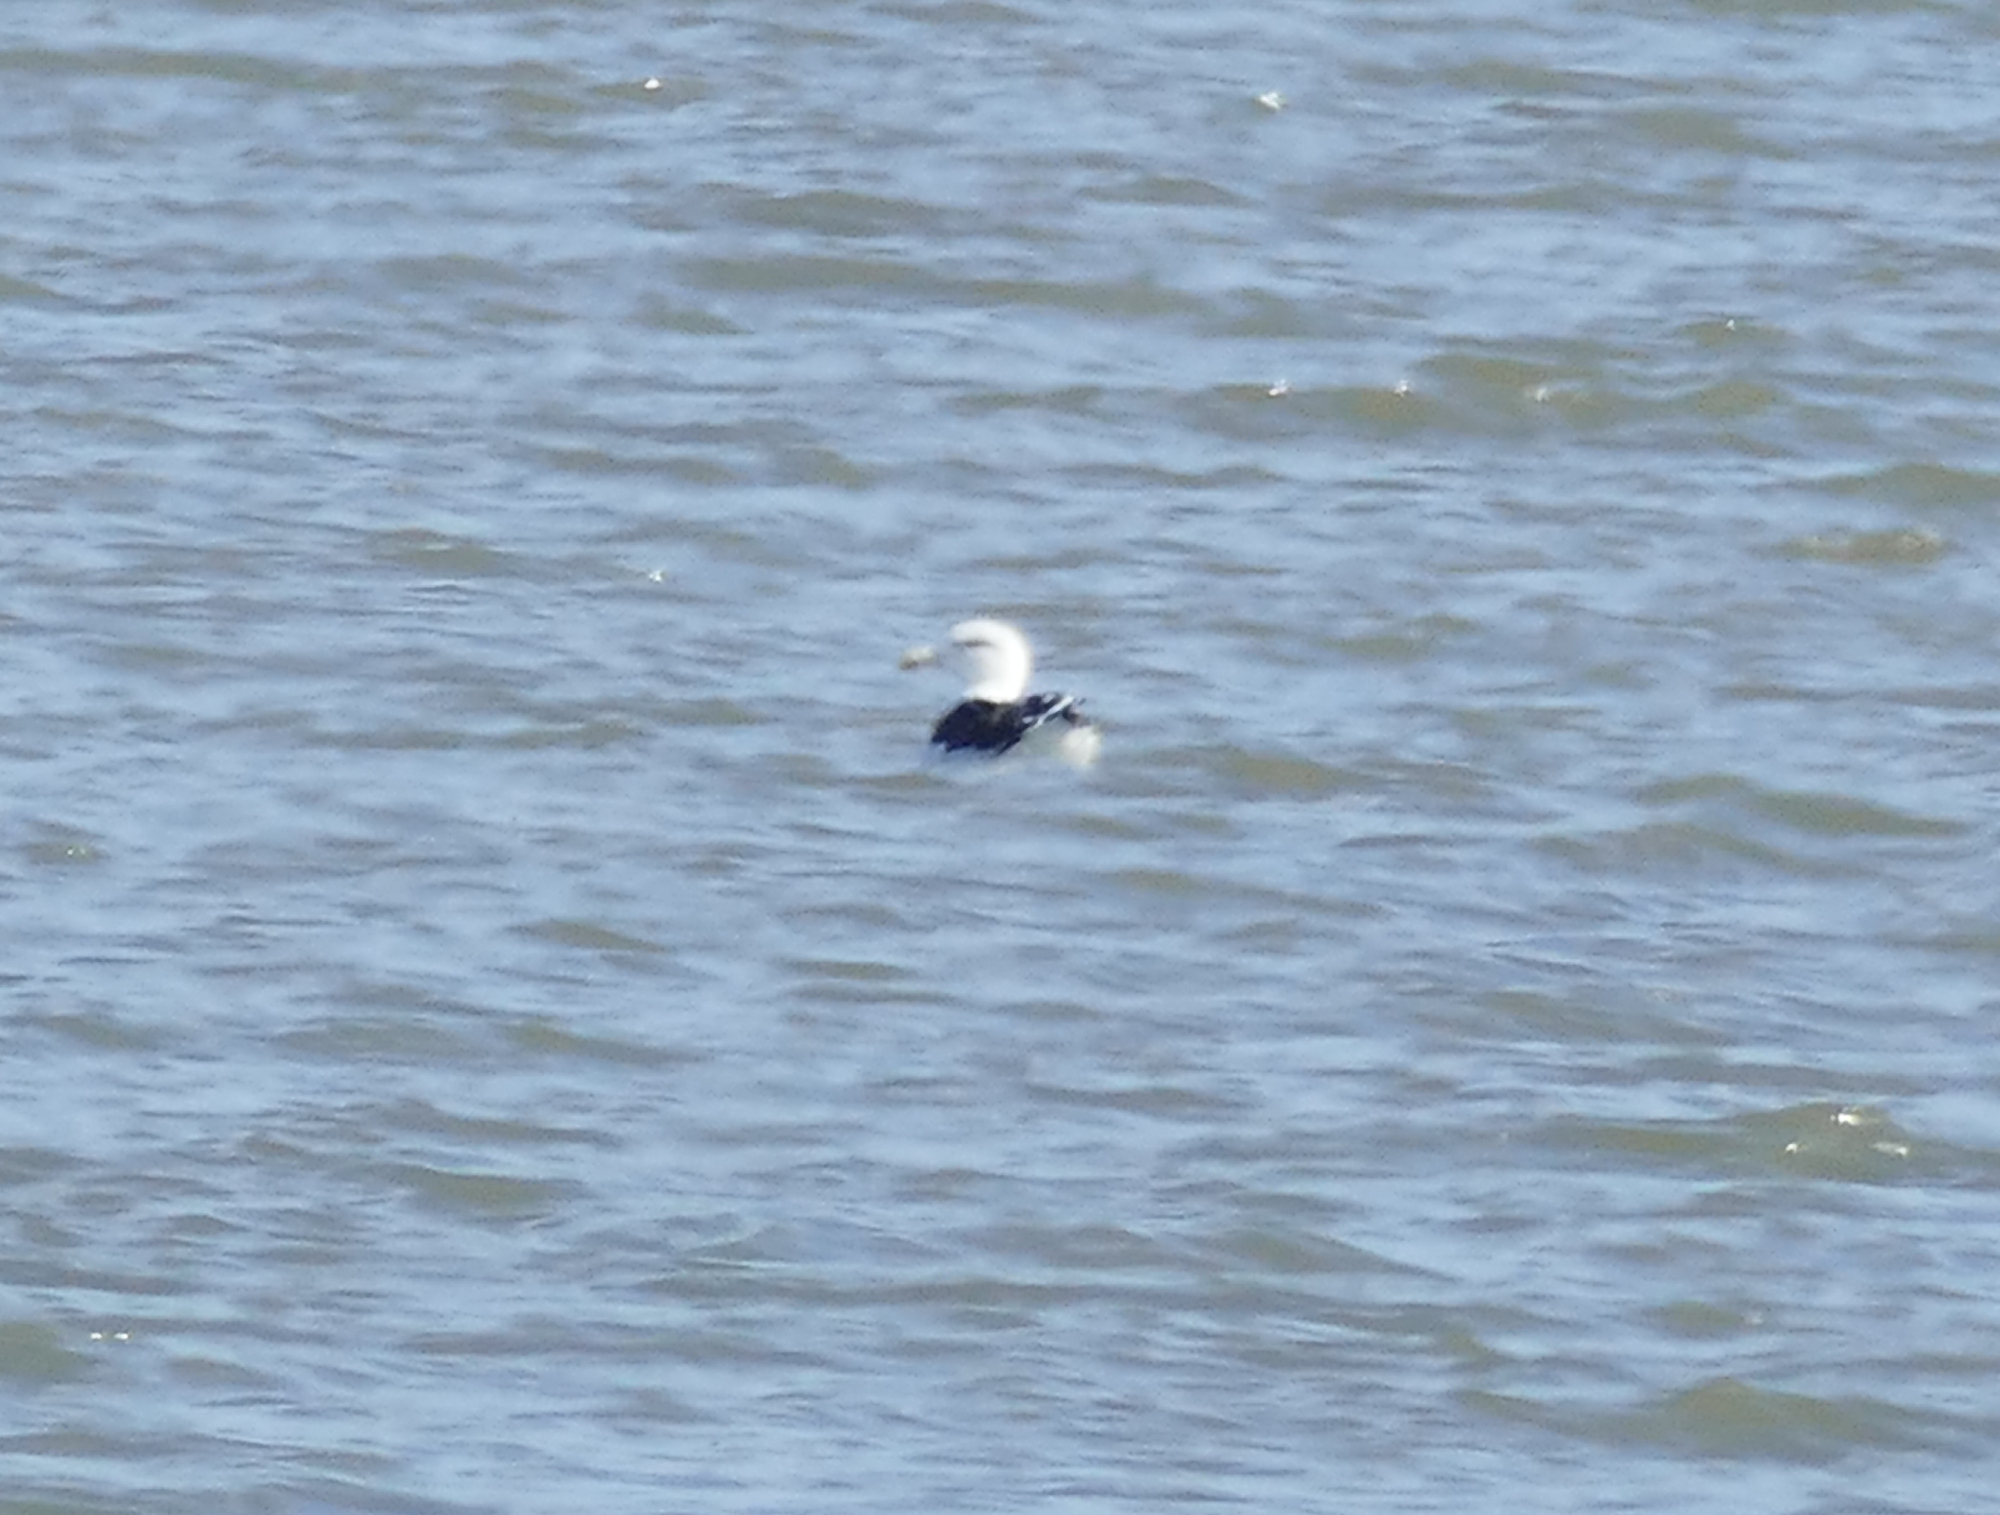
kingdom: Animalia
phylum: Chordata
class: Aves
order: Charadriiformes
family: Laridae
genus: Larus
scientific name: Larus marinus
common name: Great black-backed gull
